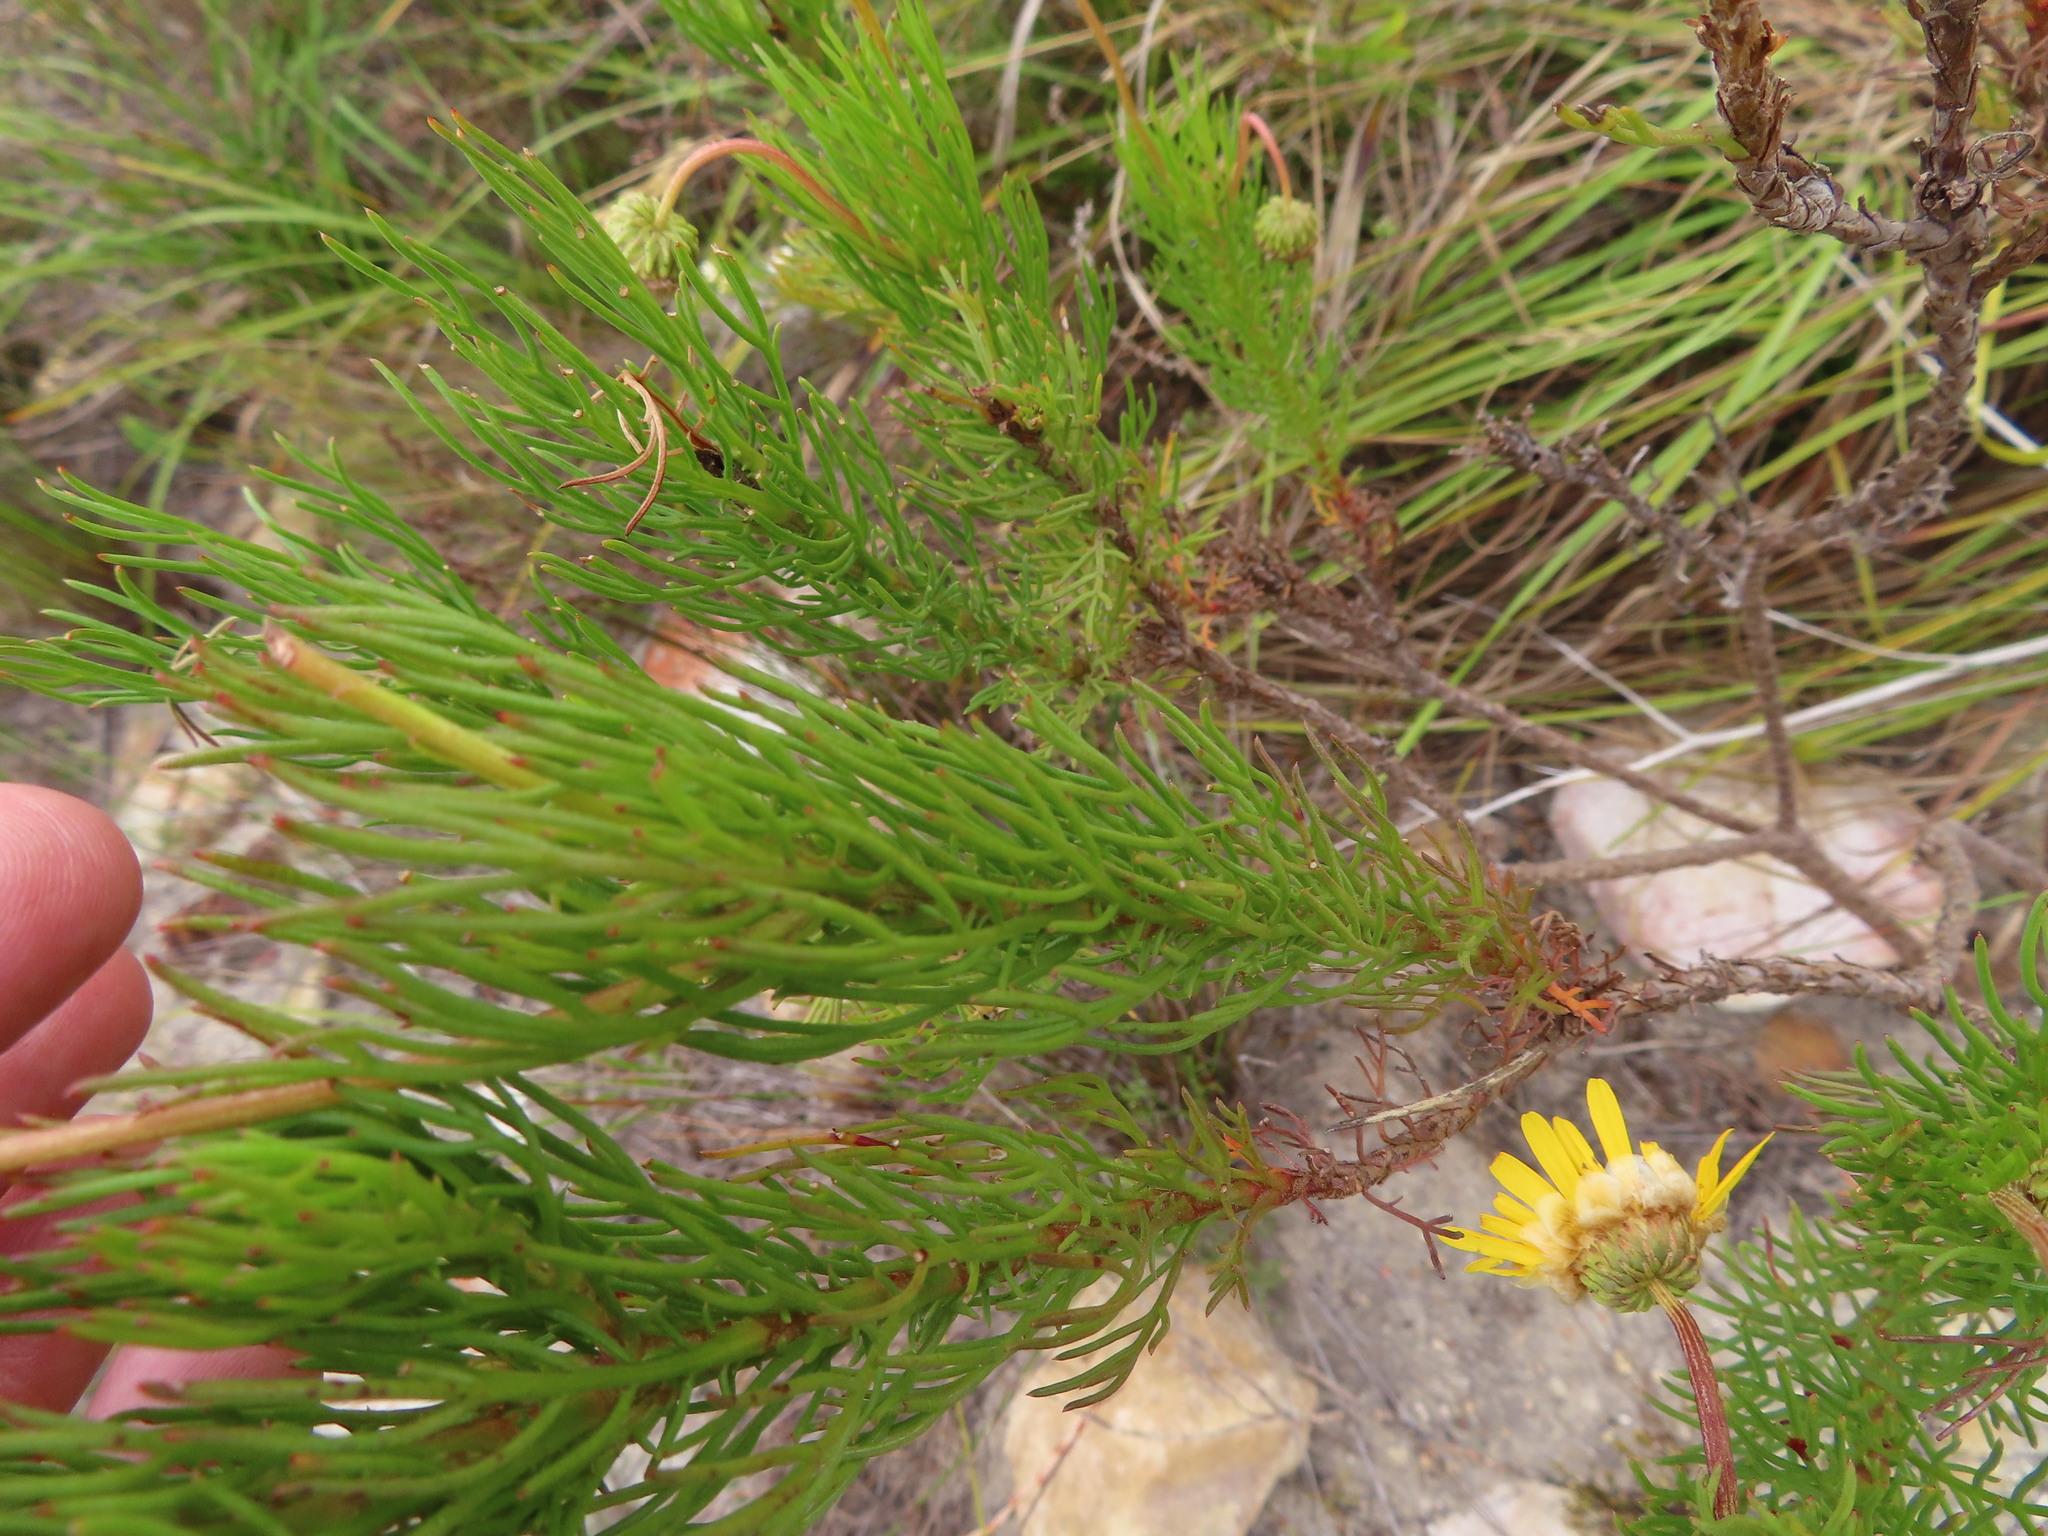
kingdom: Plantae
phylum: Tracheophyta
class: Magnoliopsida
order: Asterales
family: Asteraceae
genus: Ursinia
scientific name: Ursinia paleacea
